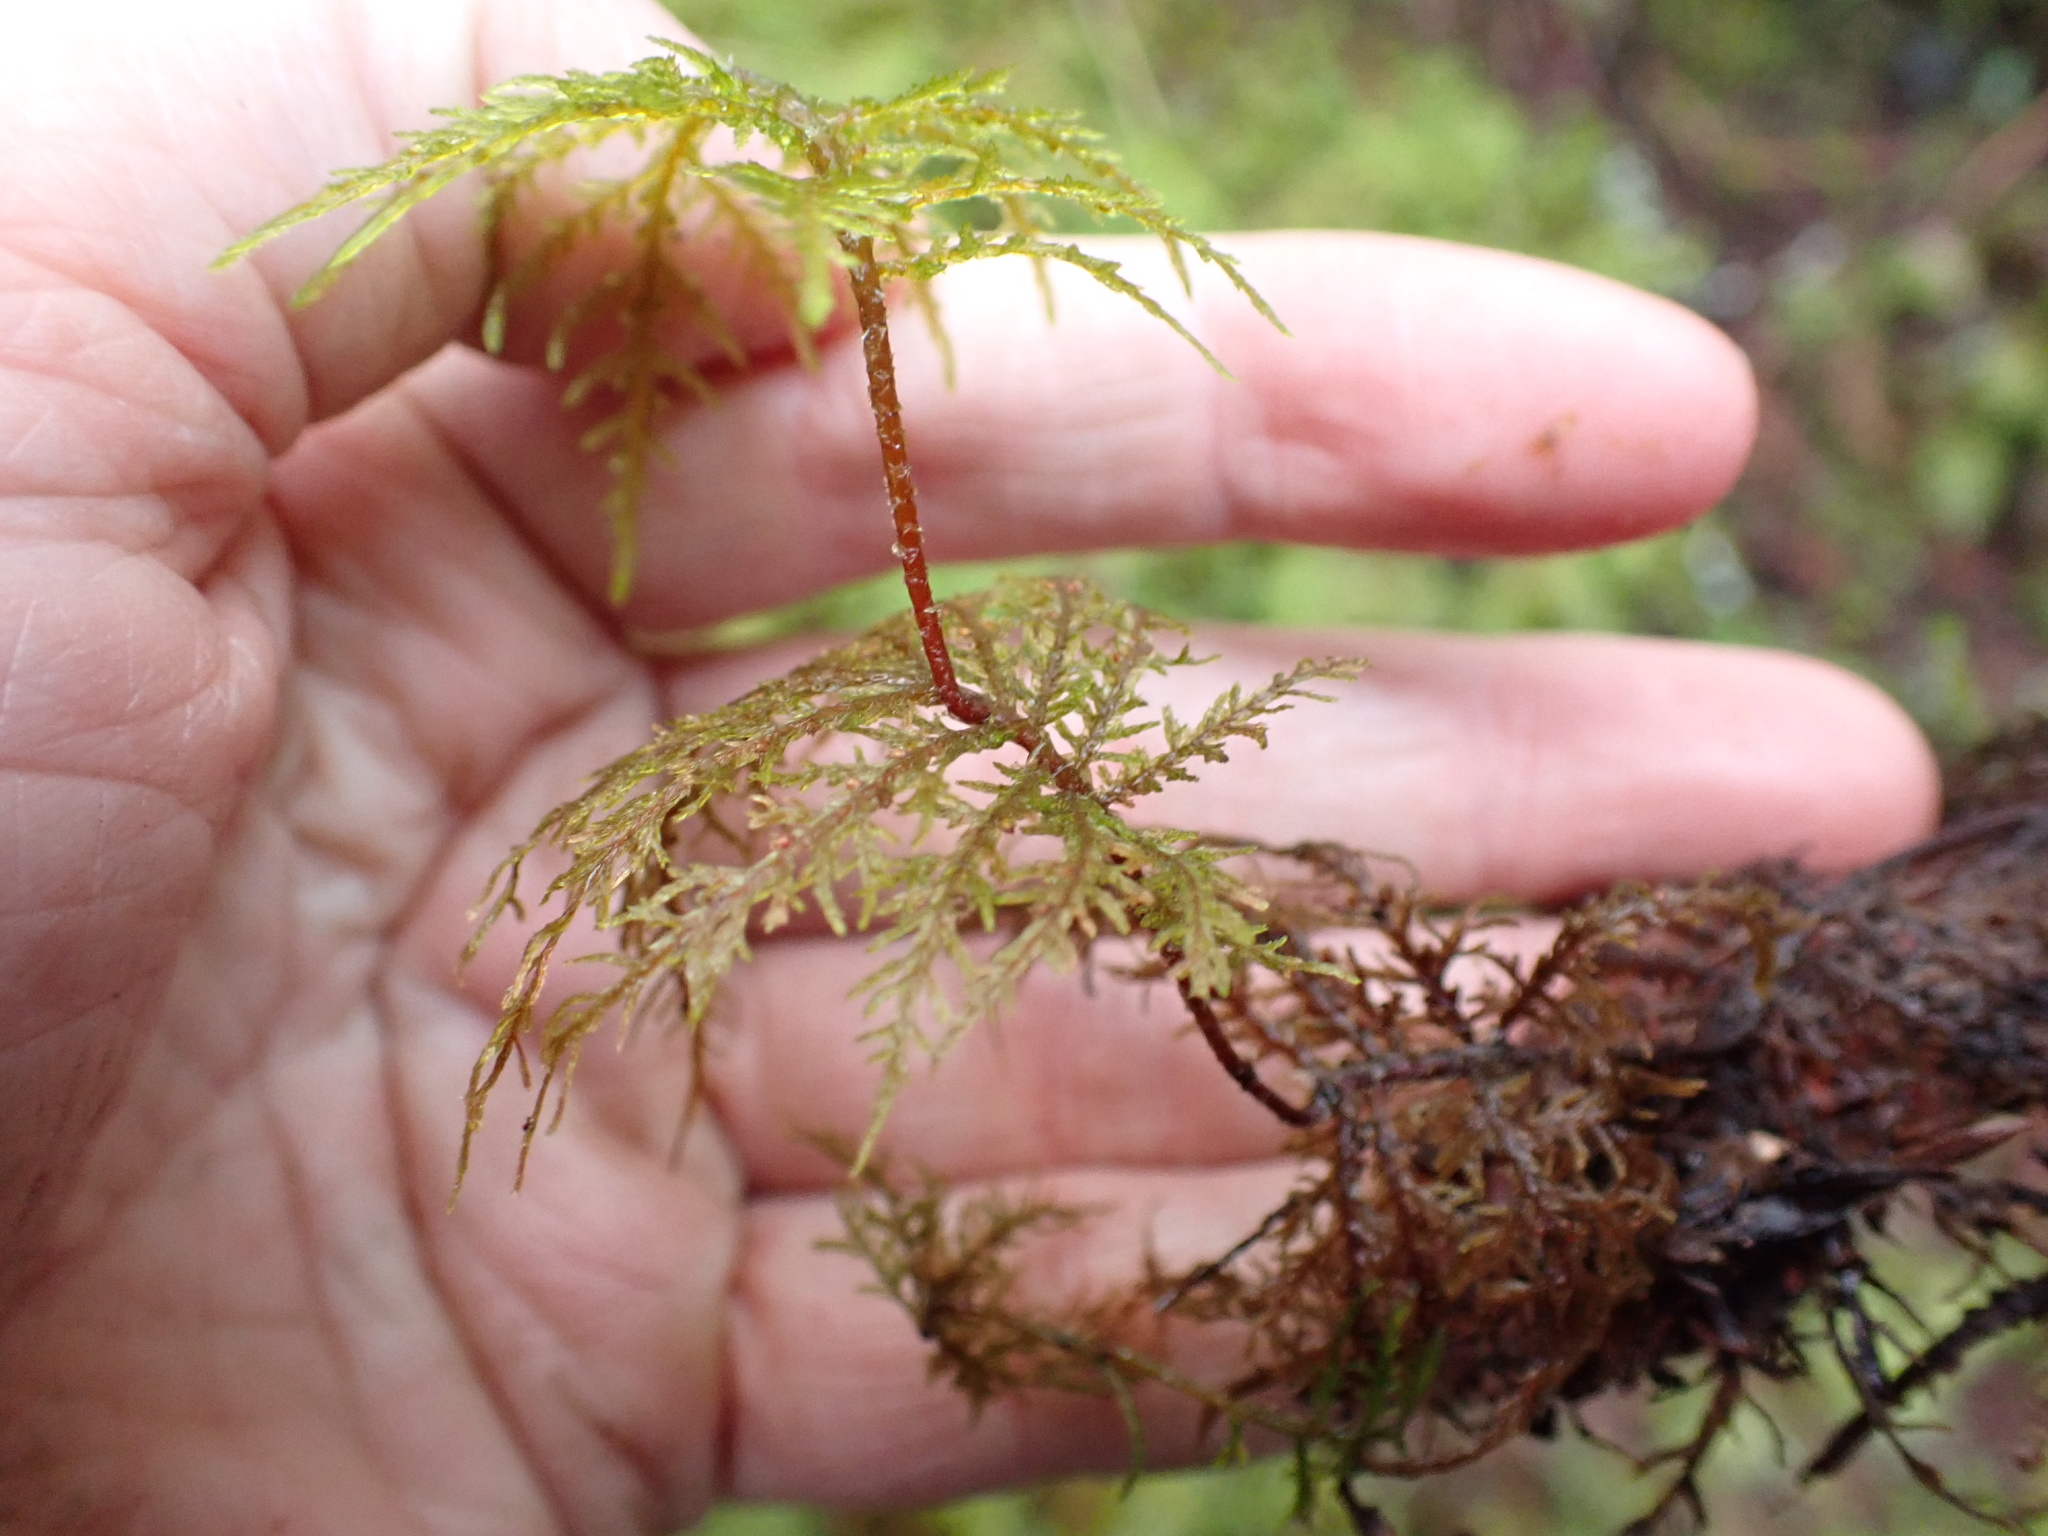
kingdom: Plantae
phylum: Bryophyta
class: Bryopsida
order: Hypnales
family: Hylocomiaceae
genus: Hylocomium
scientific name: Hylocomium splendens
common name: Stairstep moss
